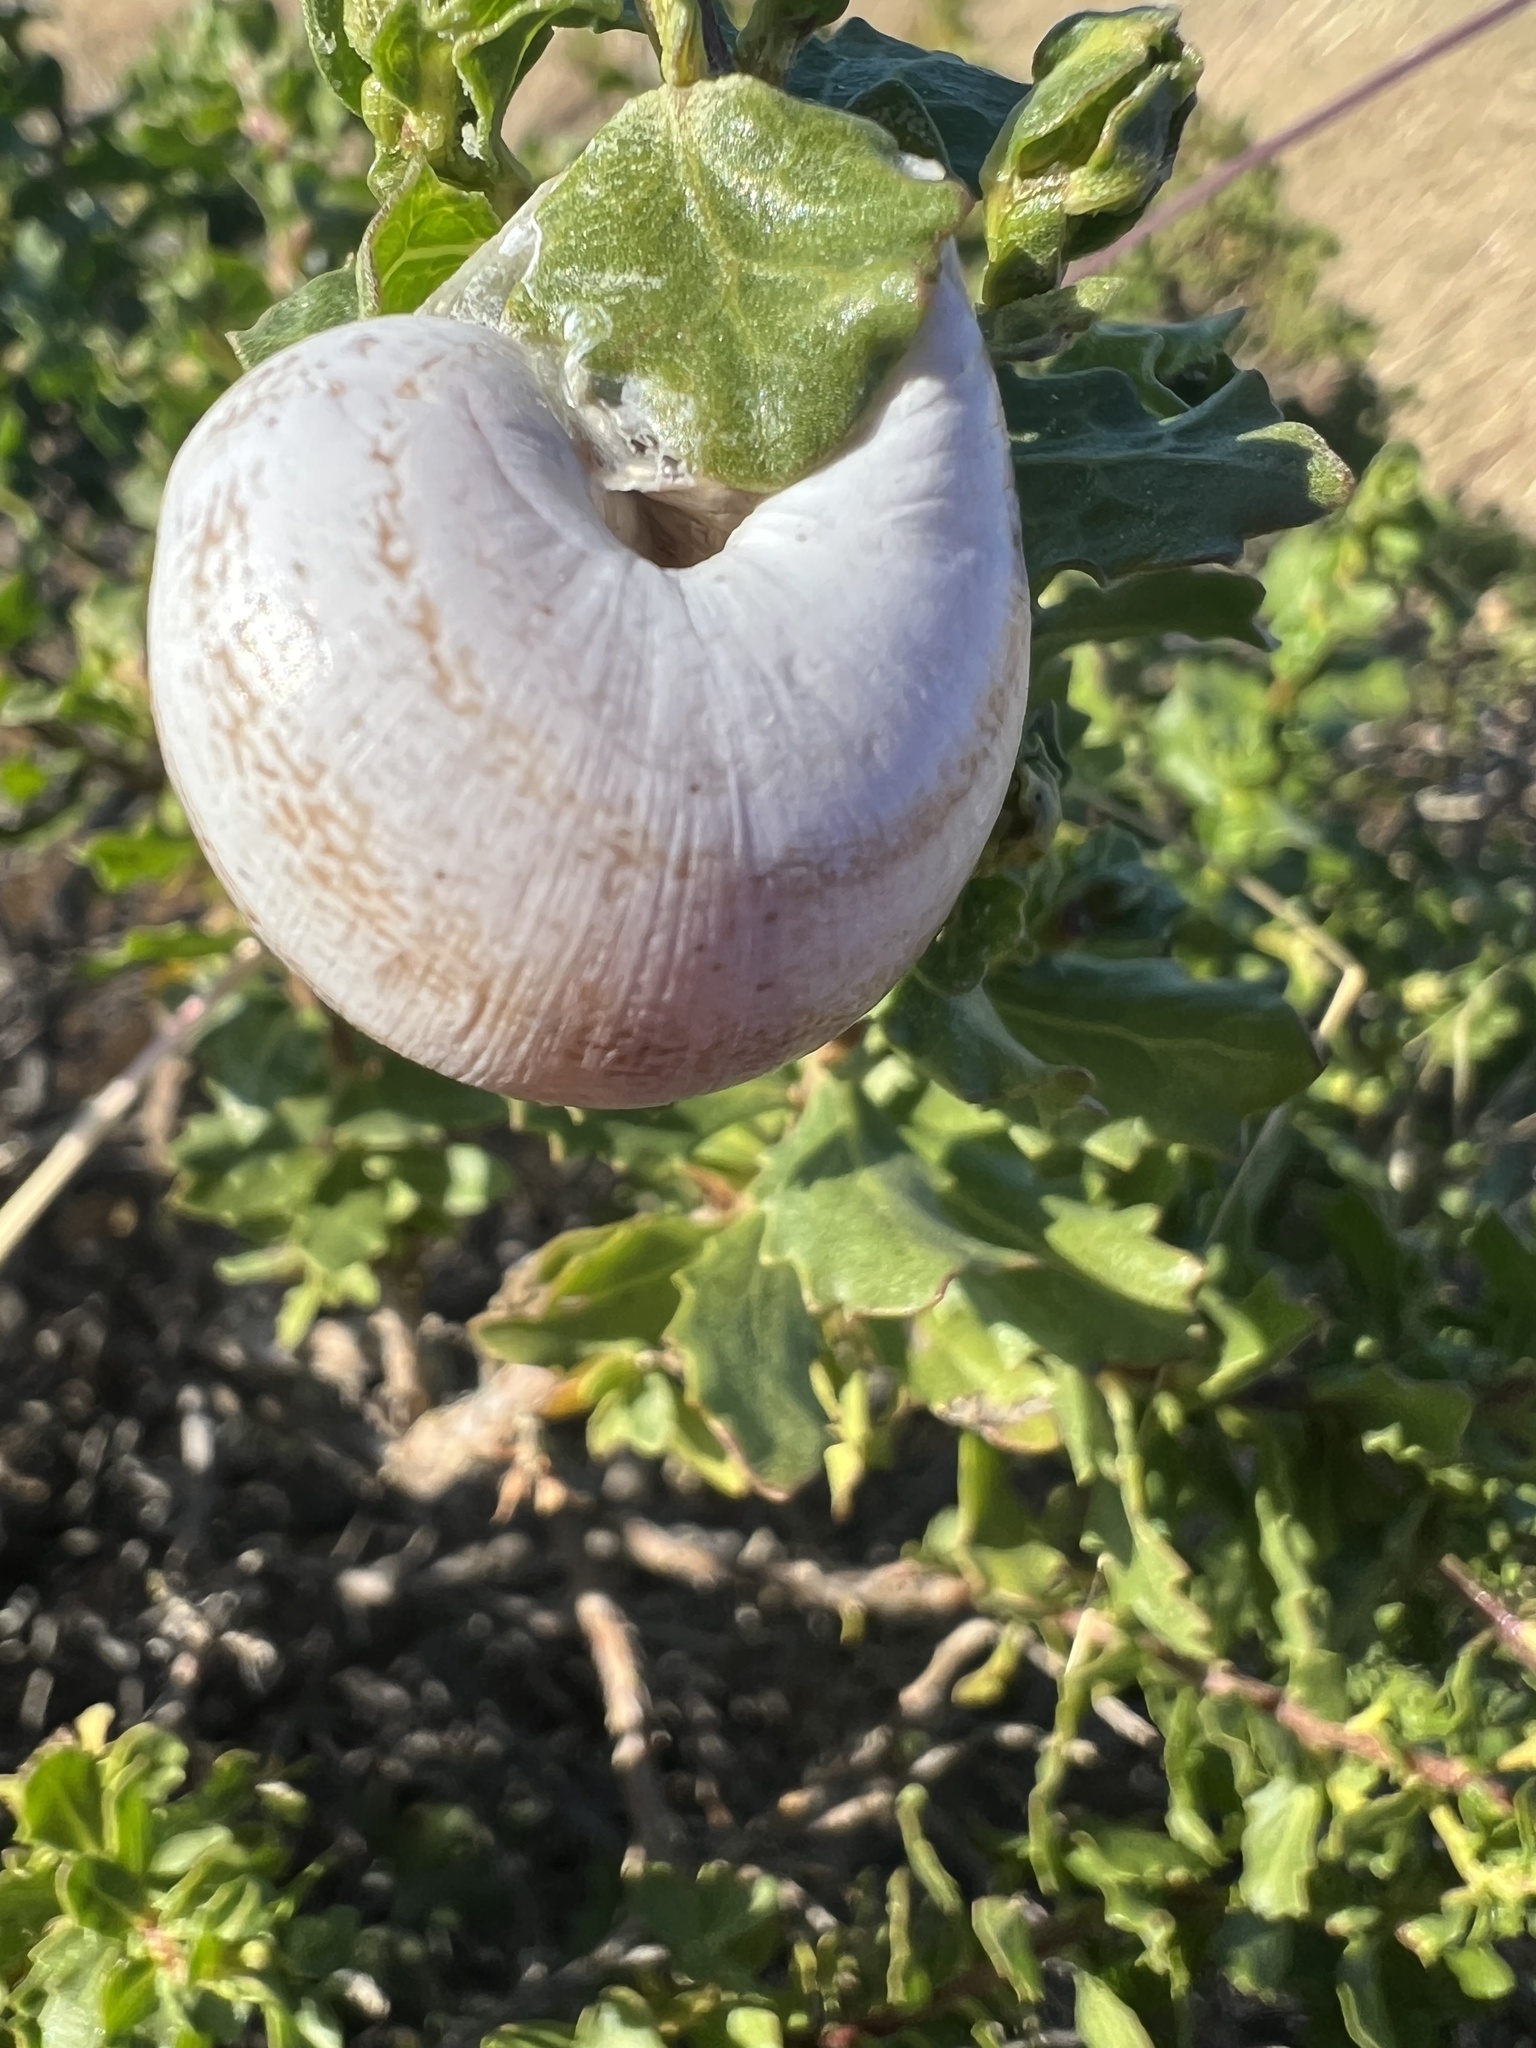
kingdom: Animalia
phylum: Mollusca
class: Gastropoda
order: Stylommatophora
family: Helicidae
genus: Otala
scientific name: Otala lactea
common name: Milk snail
